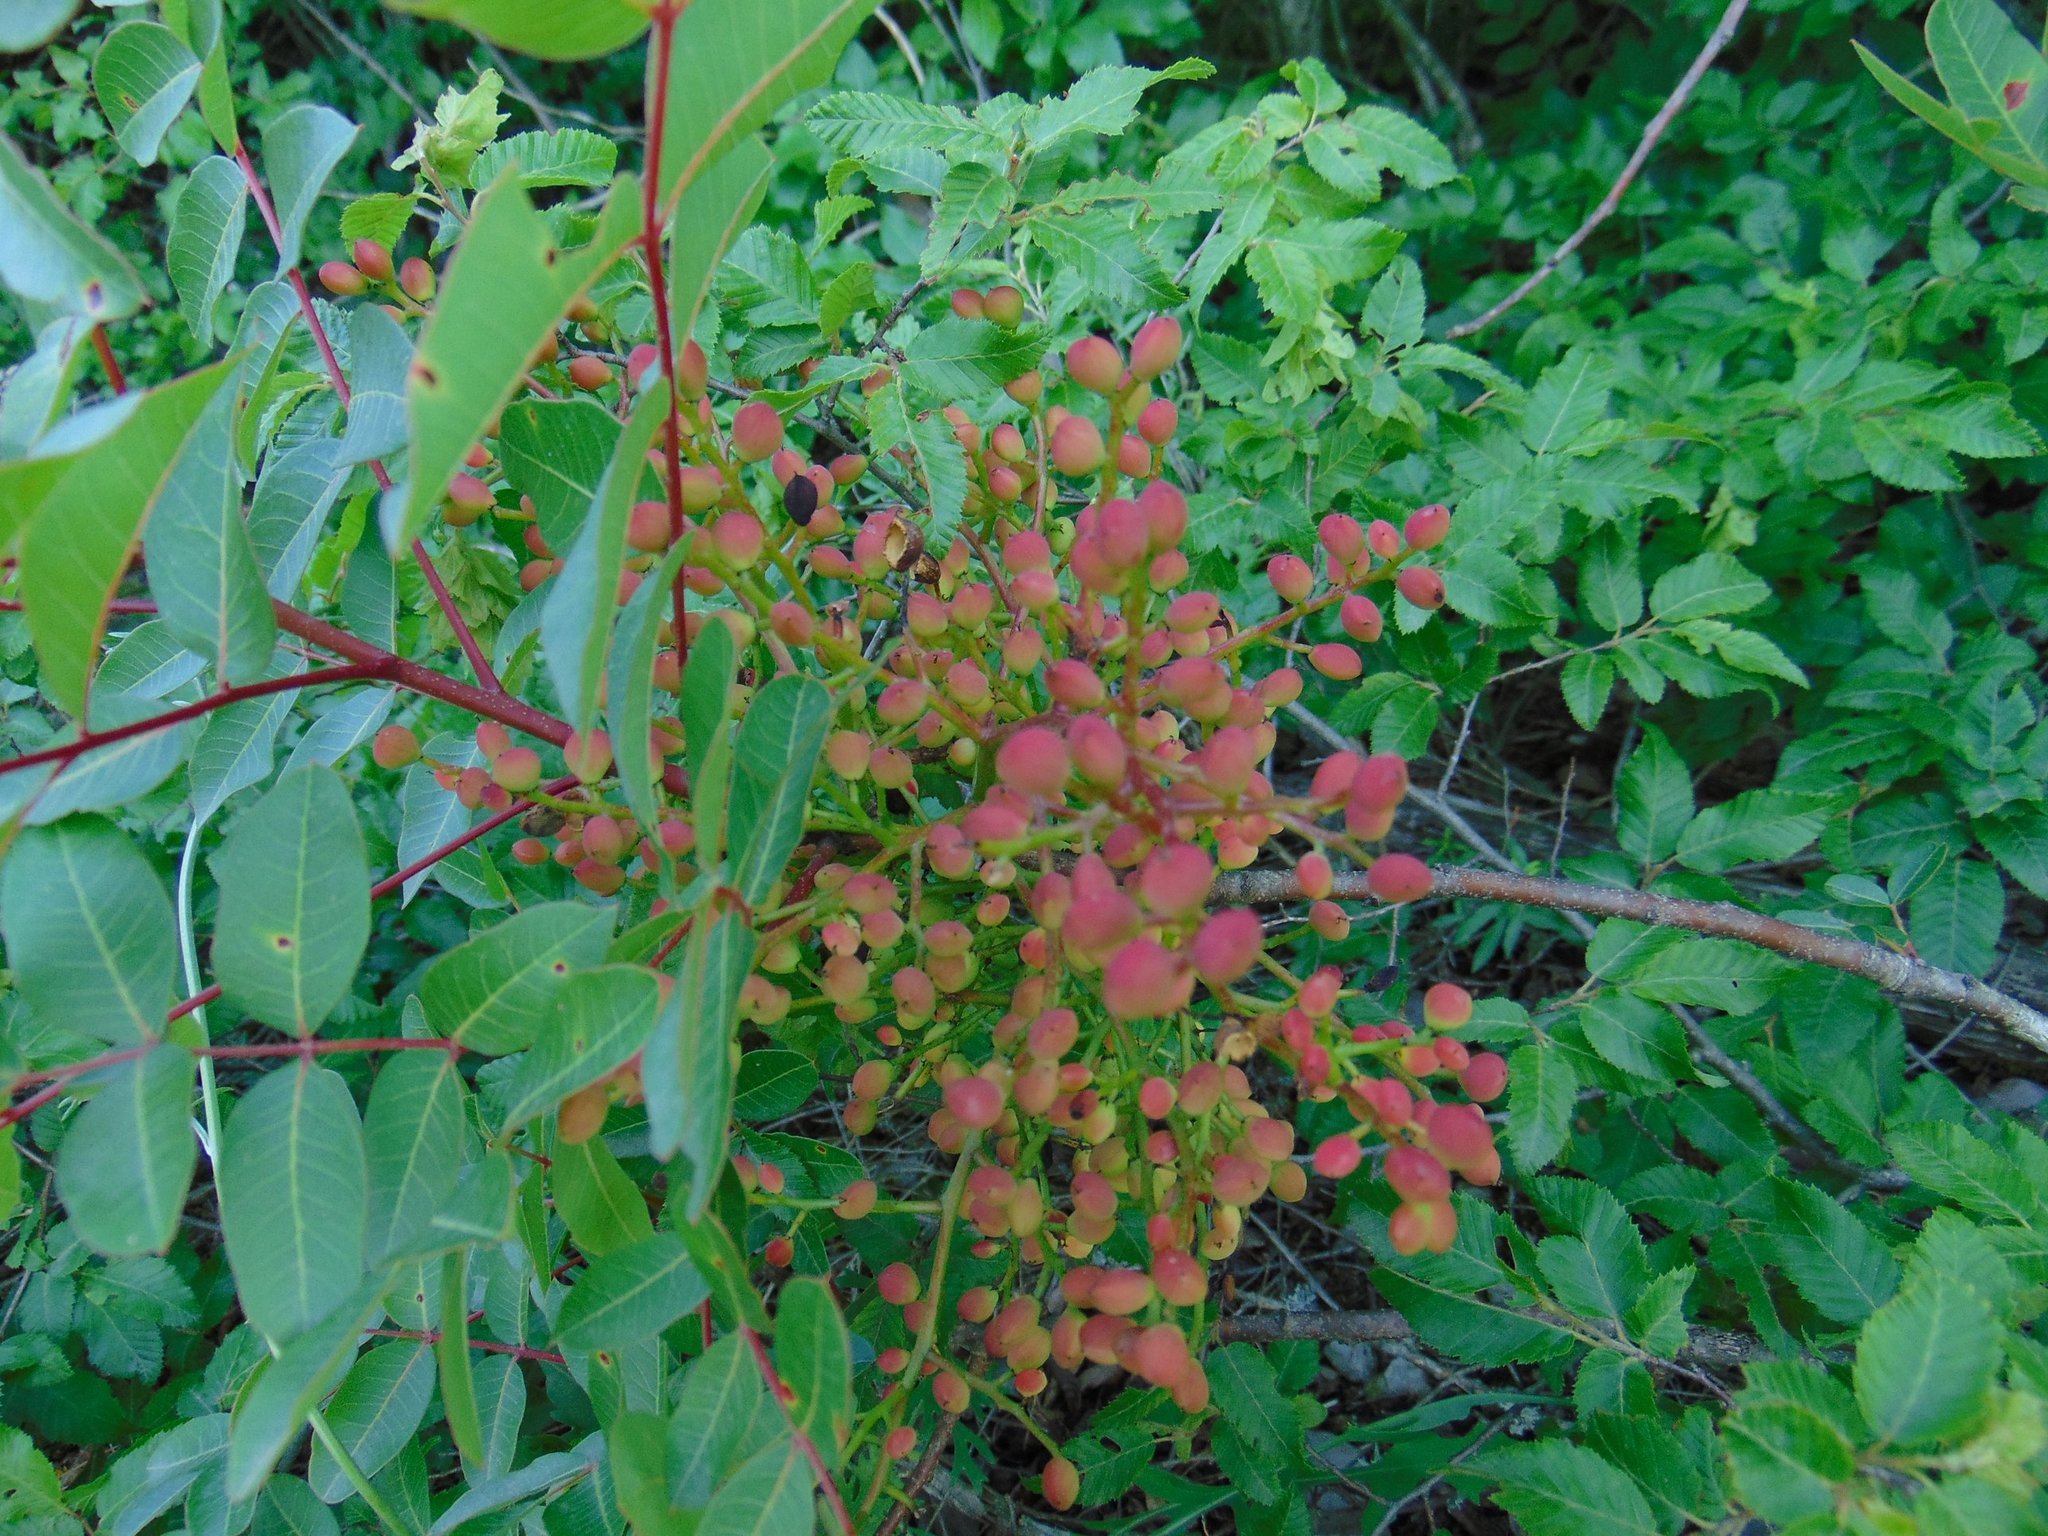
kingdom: Plantae
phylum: Tracheophyta
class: Magnoliopsida
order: Sapindales
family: Anacardiaceae
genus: Pistacia
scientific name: Pistacia terebinthus
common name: Terebinth
